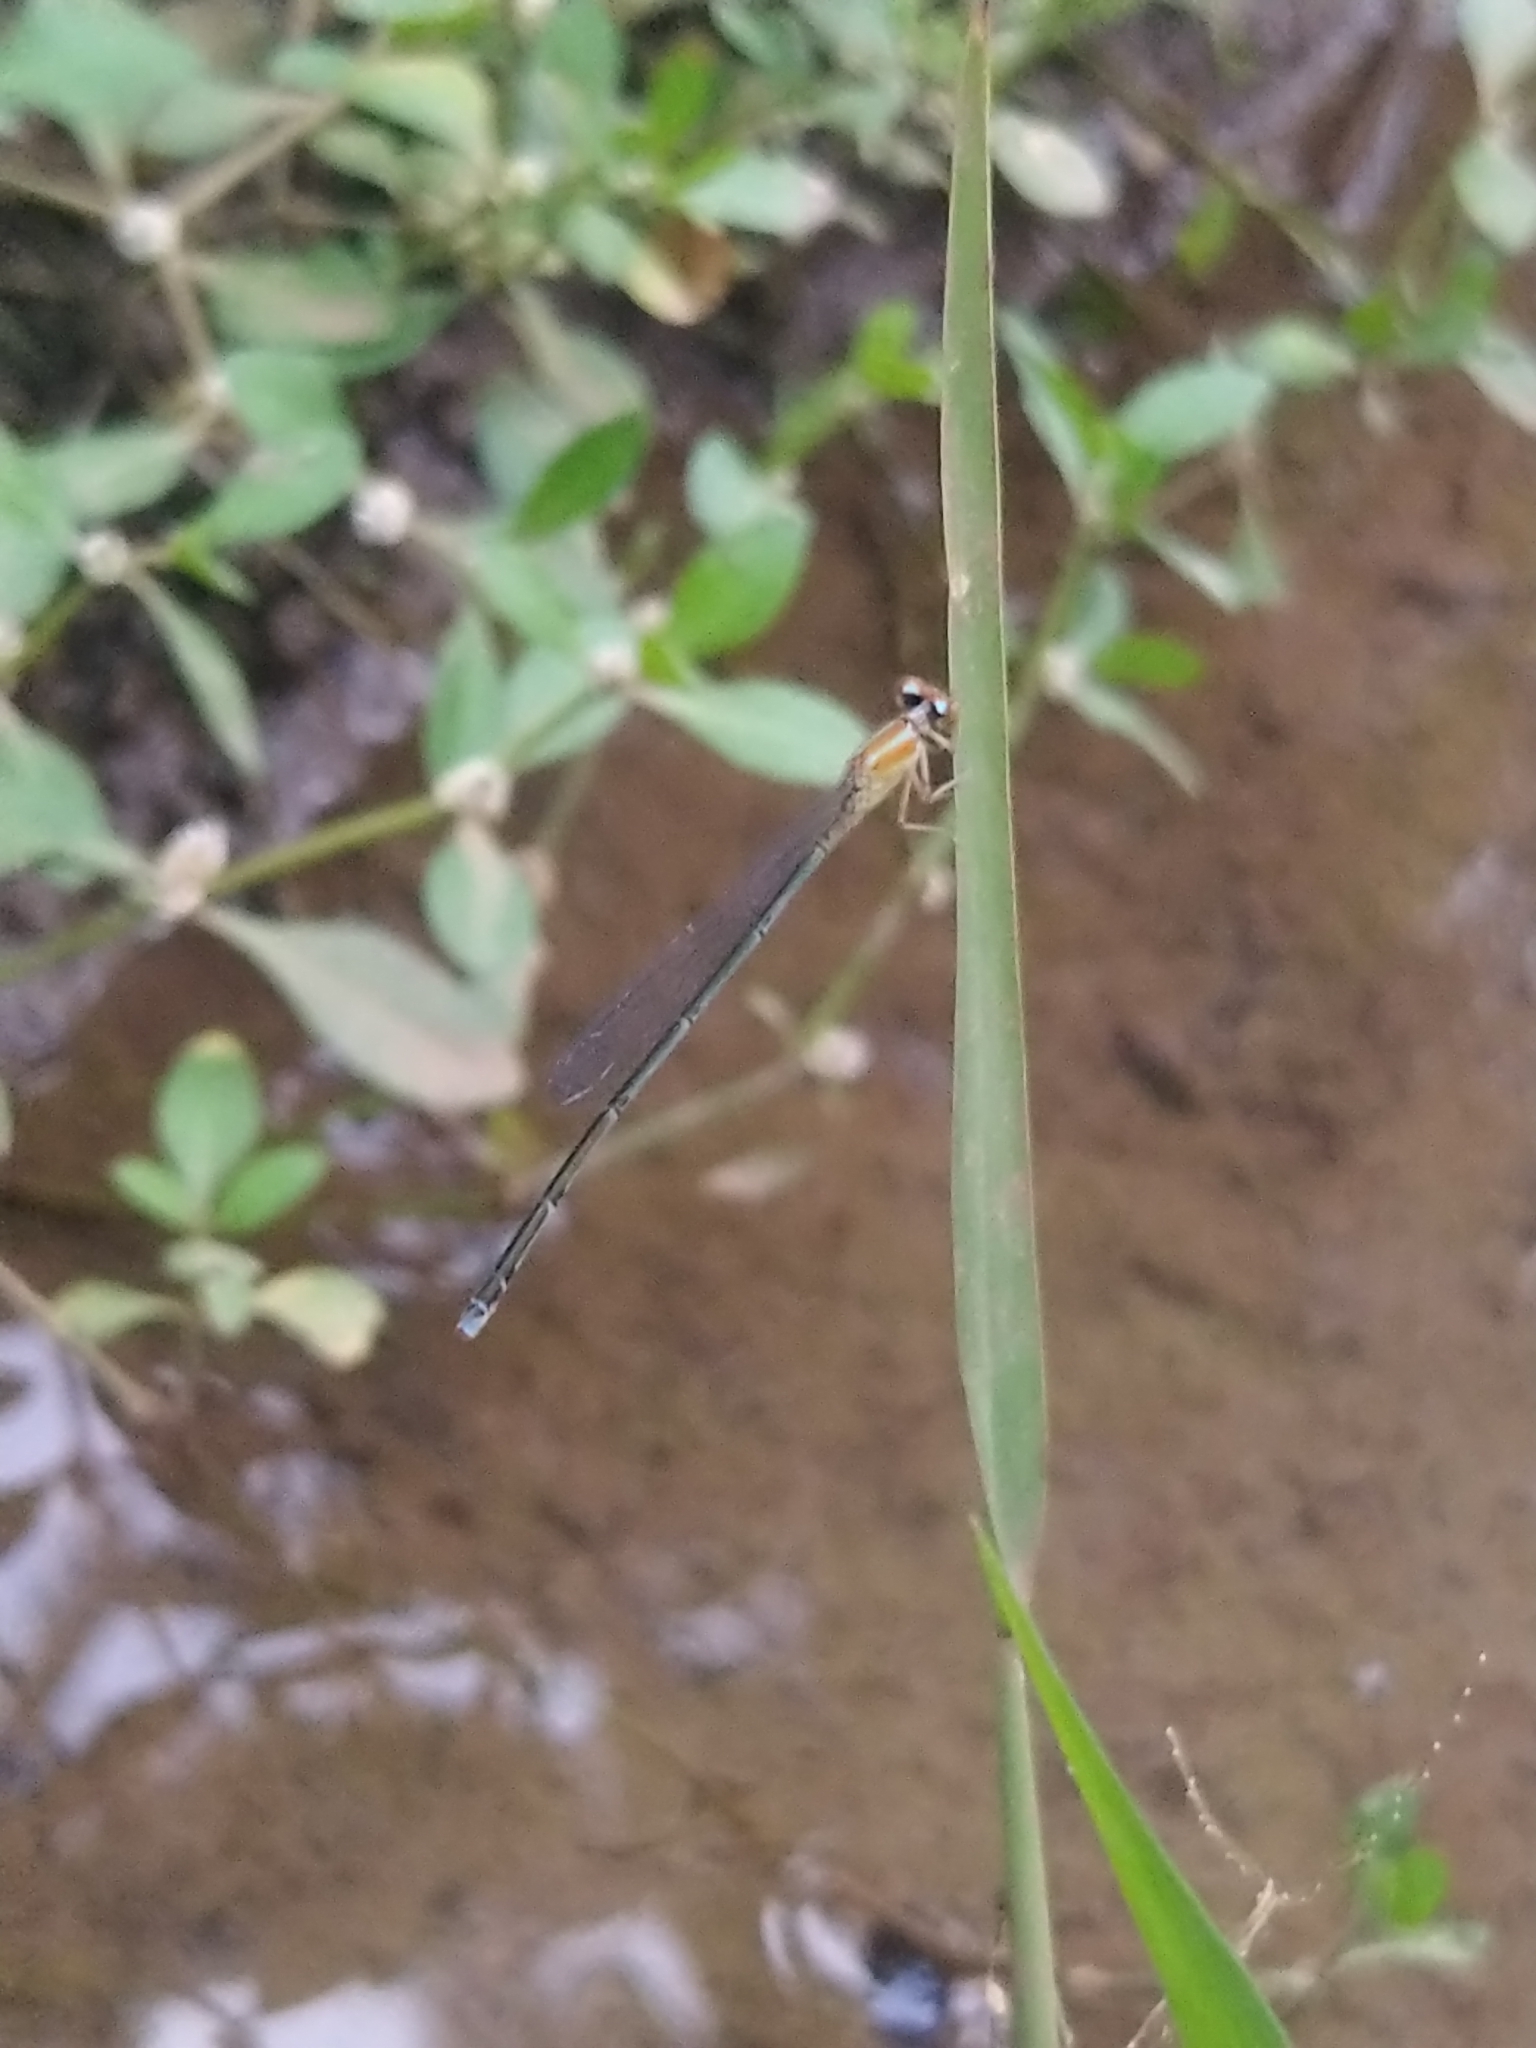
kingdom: Animalia
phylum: Arthropoda
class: Insecta
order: Odonata
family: Coenagrionidae
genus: Pseudagrion
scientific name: Pseudagrion microcephalum
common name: Blue riverdamsel
